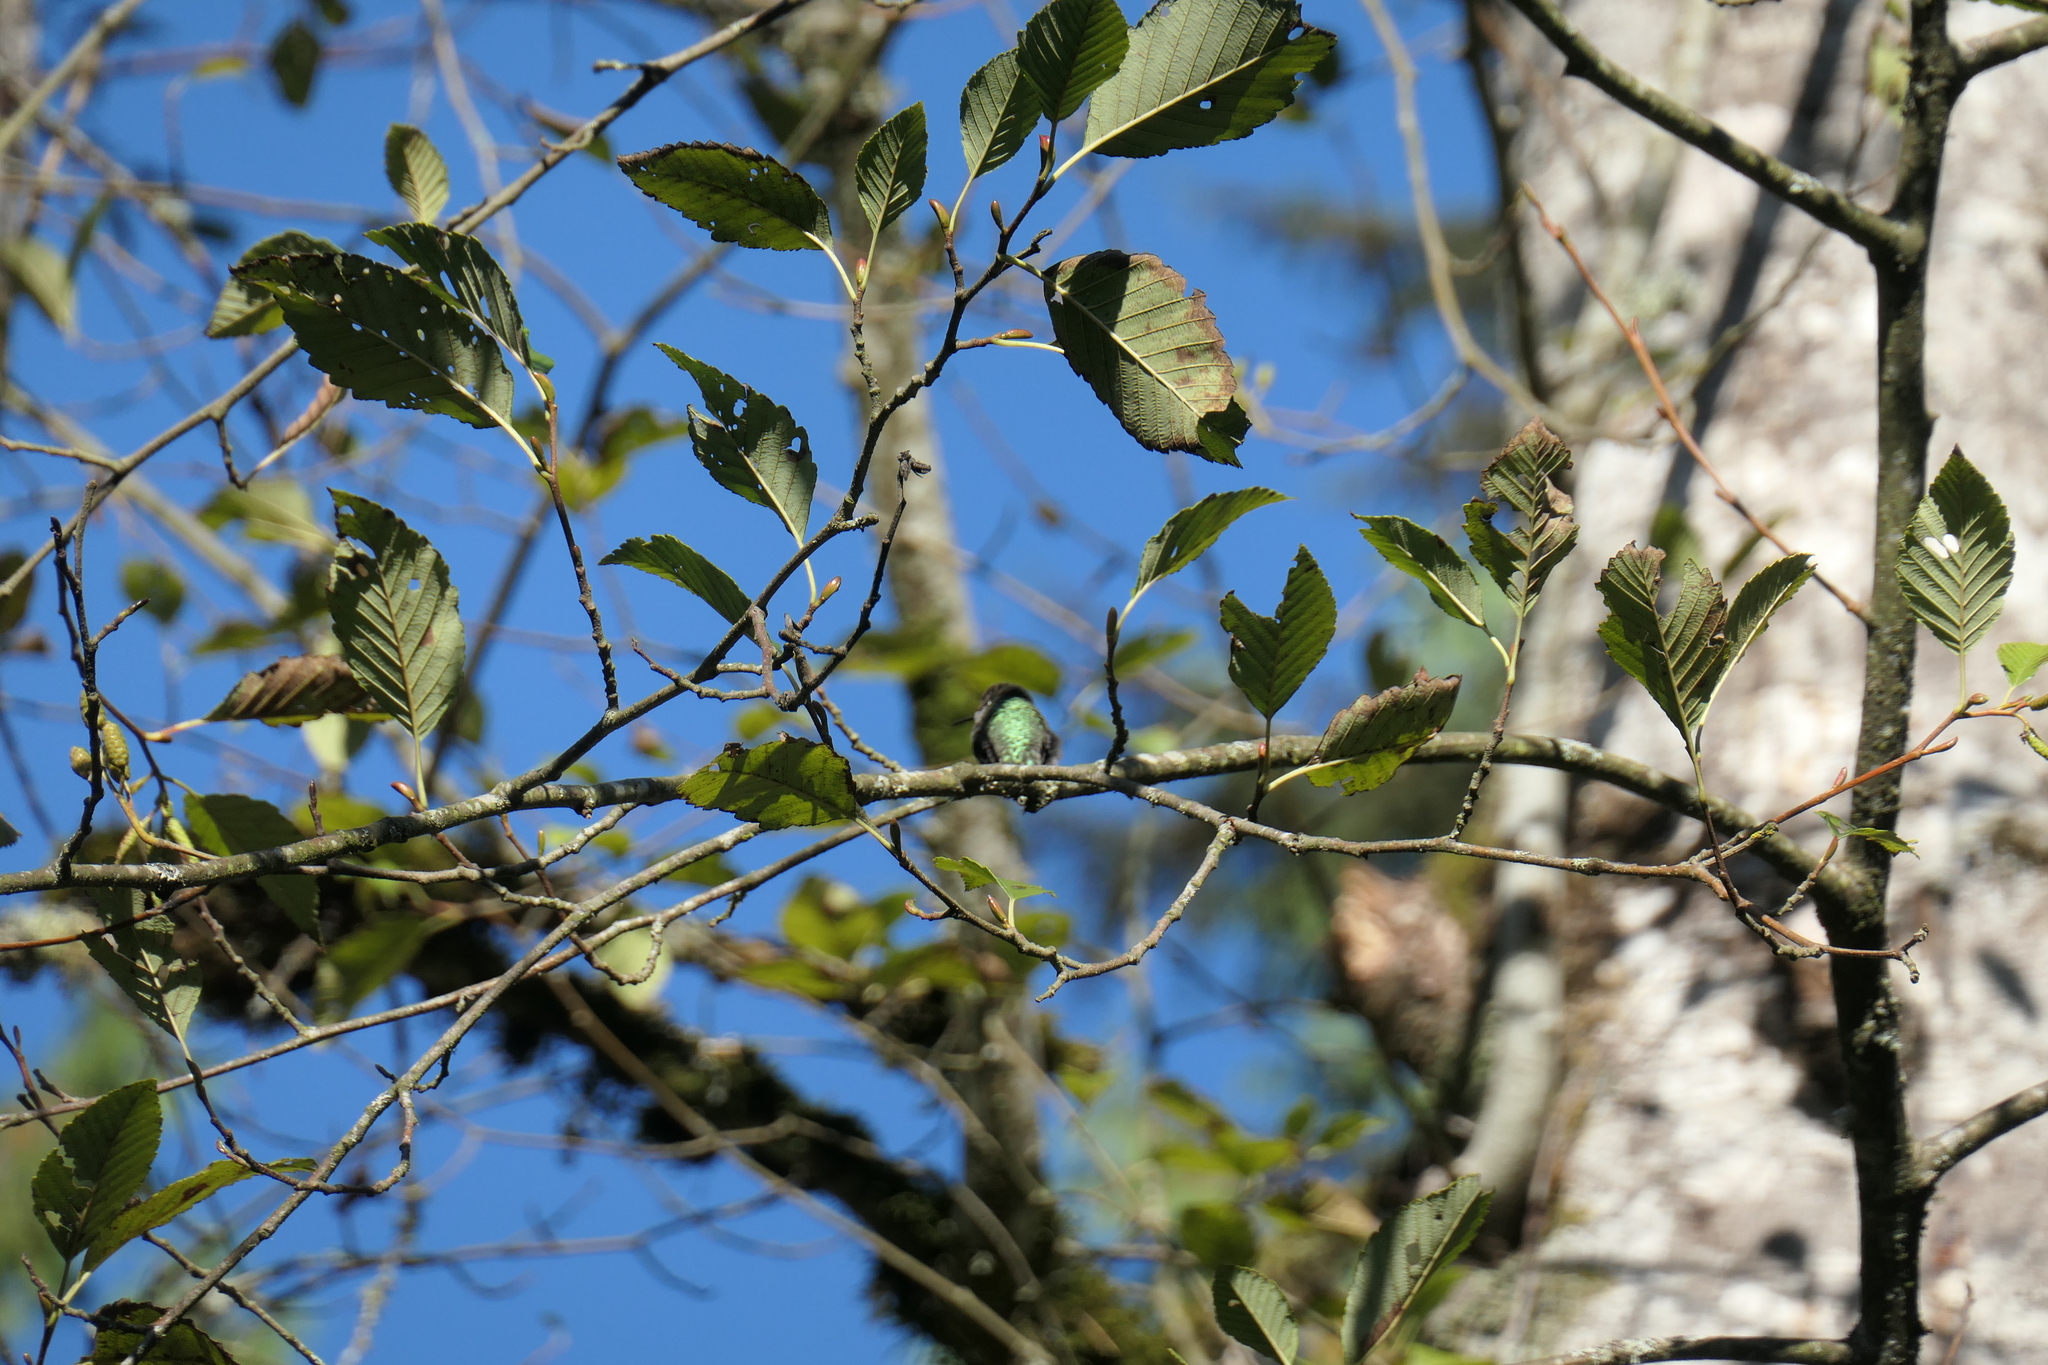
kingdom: Animalia
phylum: Chordata
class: Aves
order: Apodiformes
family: Trochilidae
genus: Calypte
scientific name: Calypte anna
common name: Anna's hummingbird
